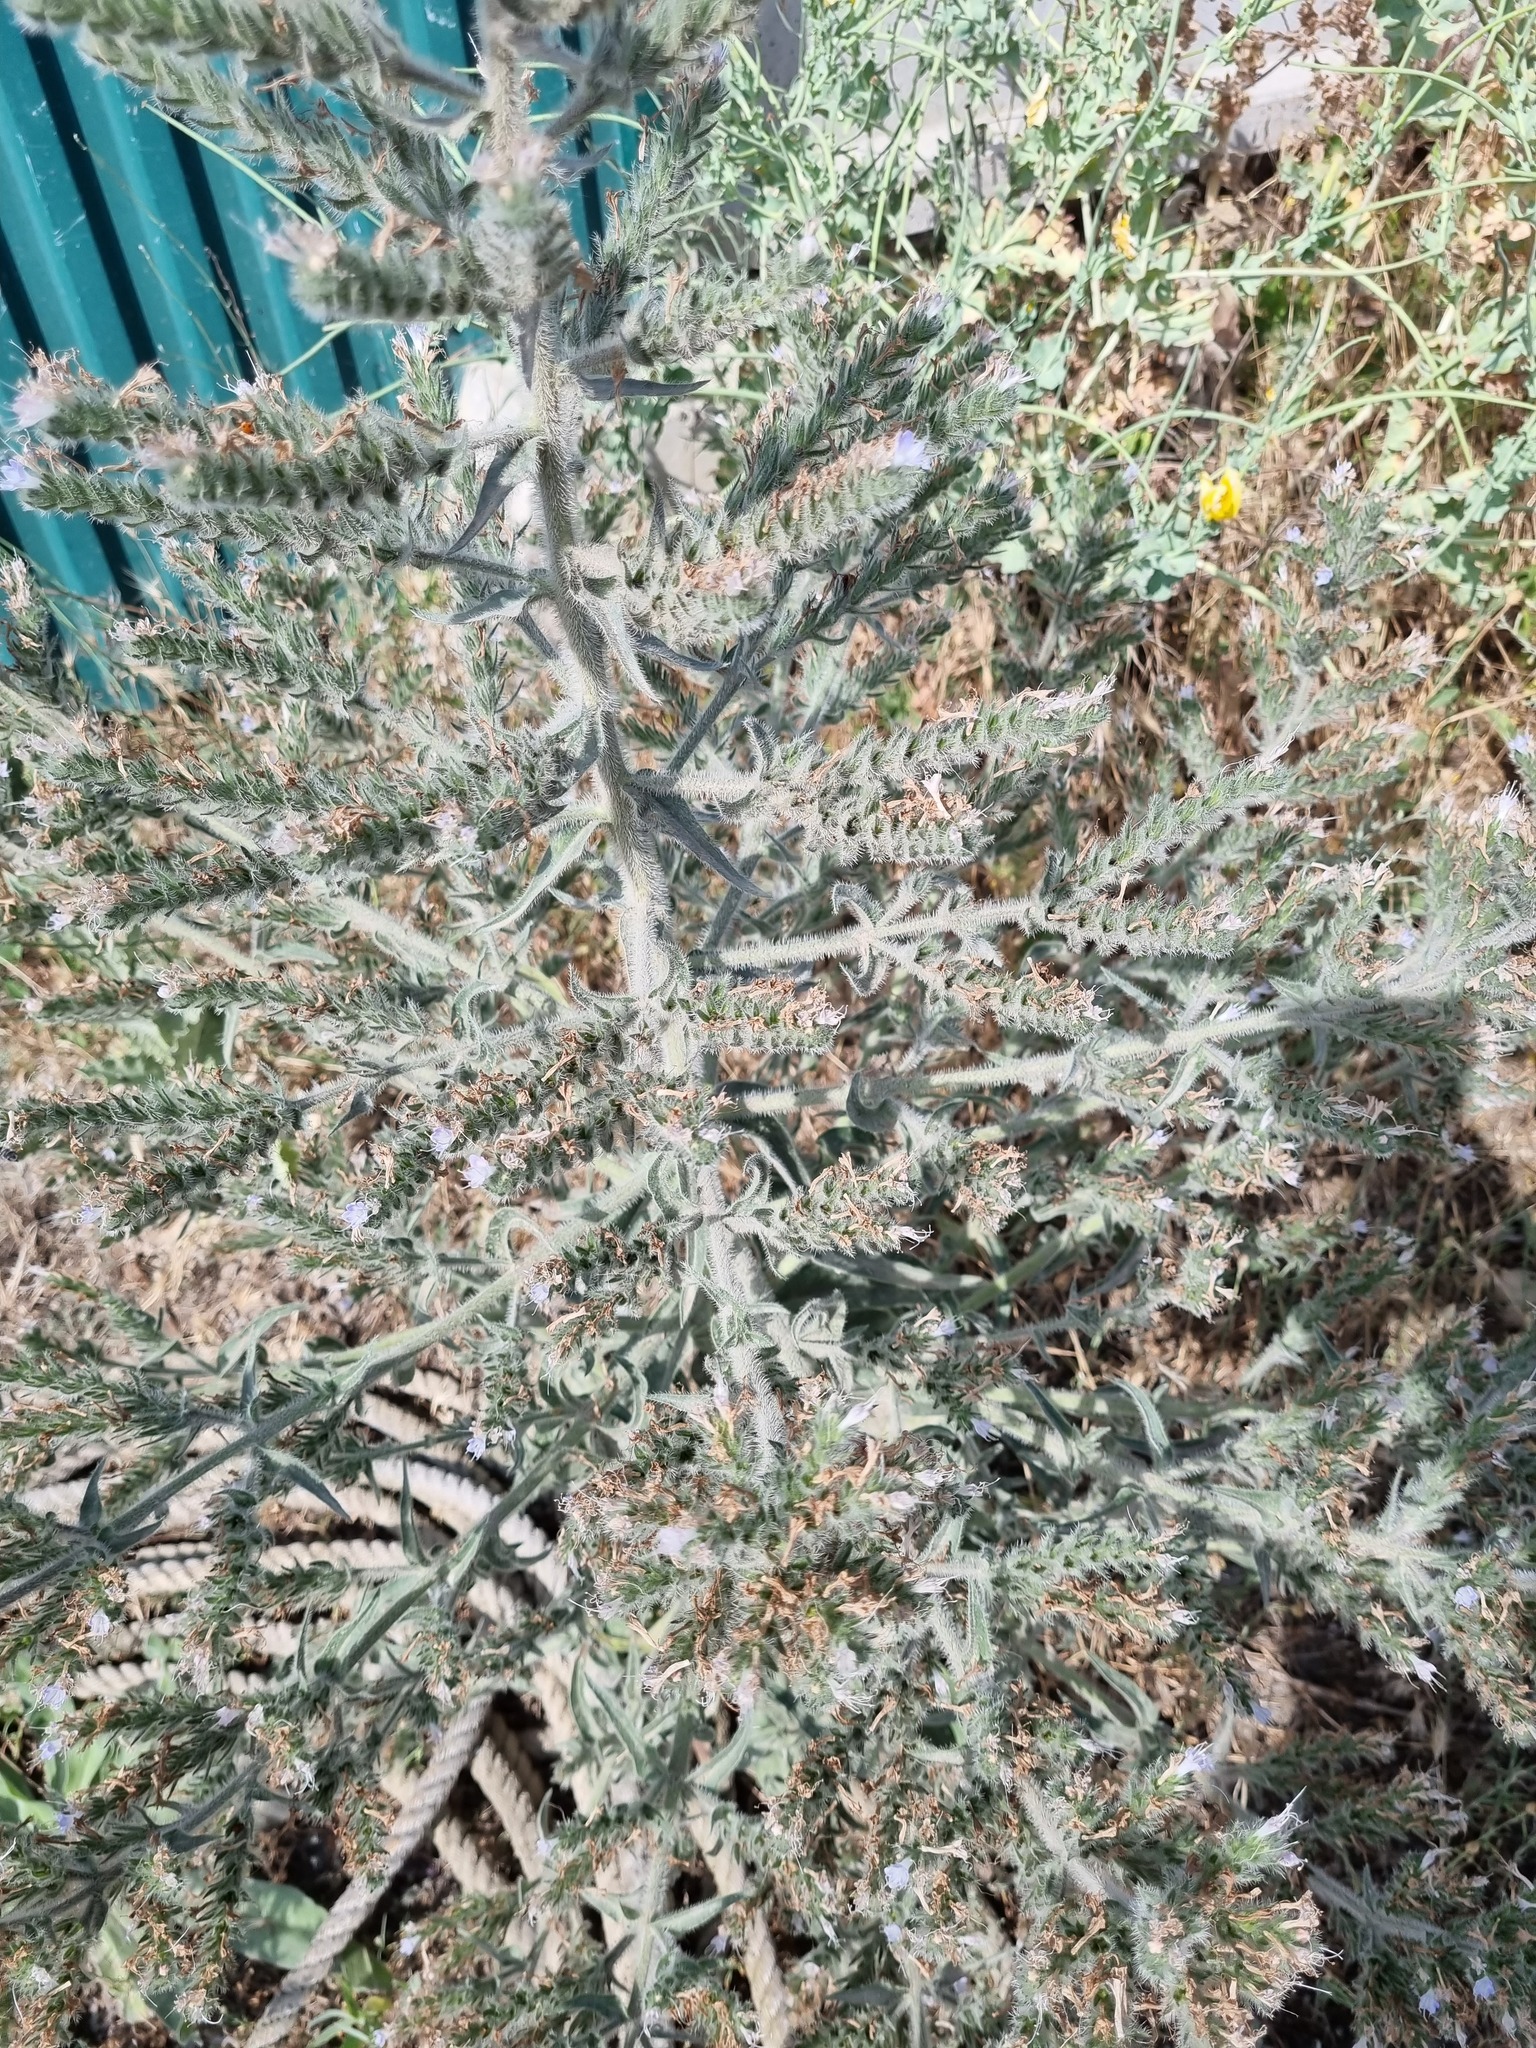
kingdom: Plantae
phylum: Tracheophyta
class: Magnoliopsida
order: Boraginales
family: Boraginaceae
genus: Echium
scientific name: Echium italicum
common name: Italian viper's bugloss
